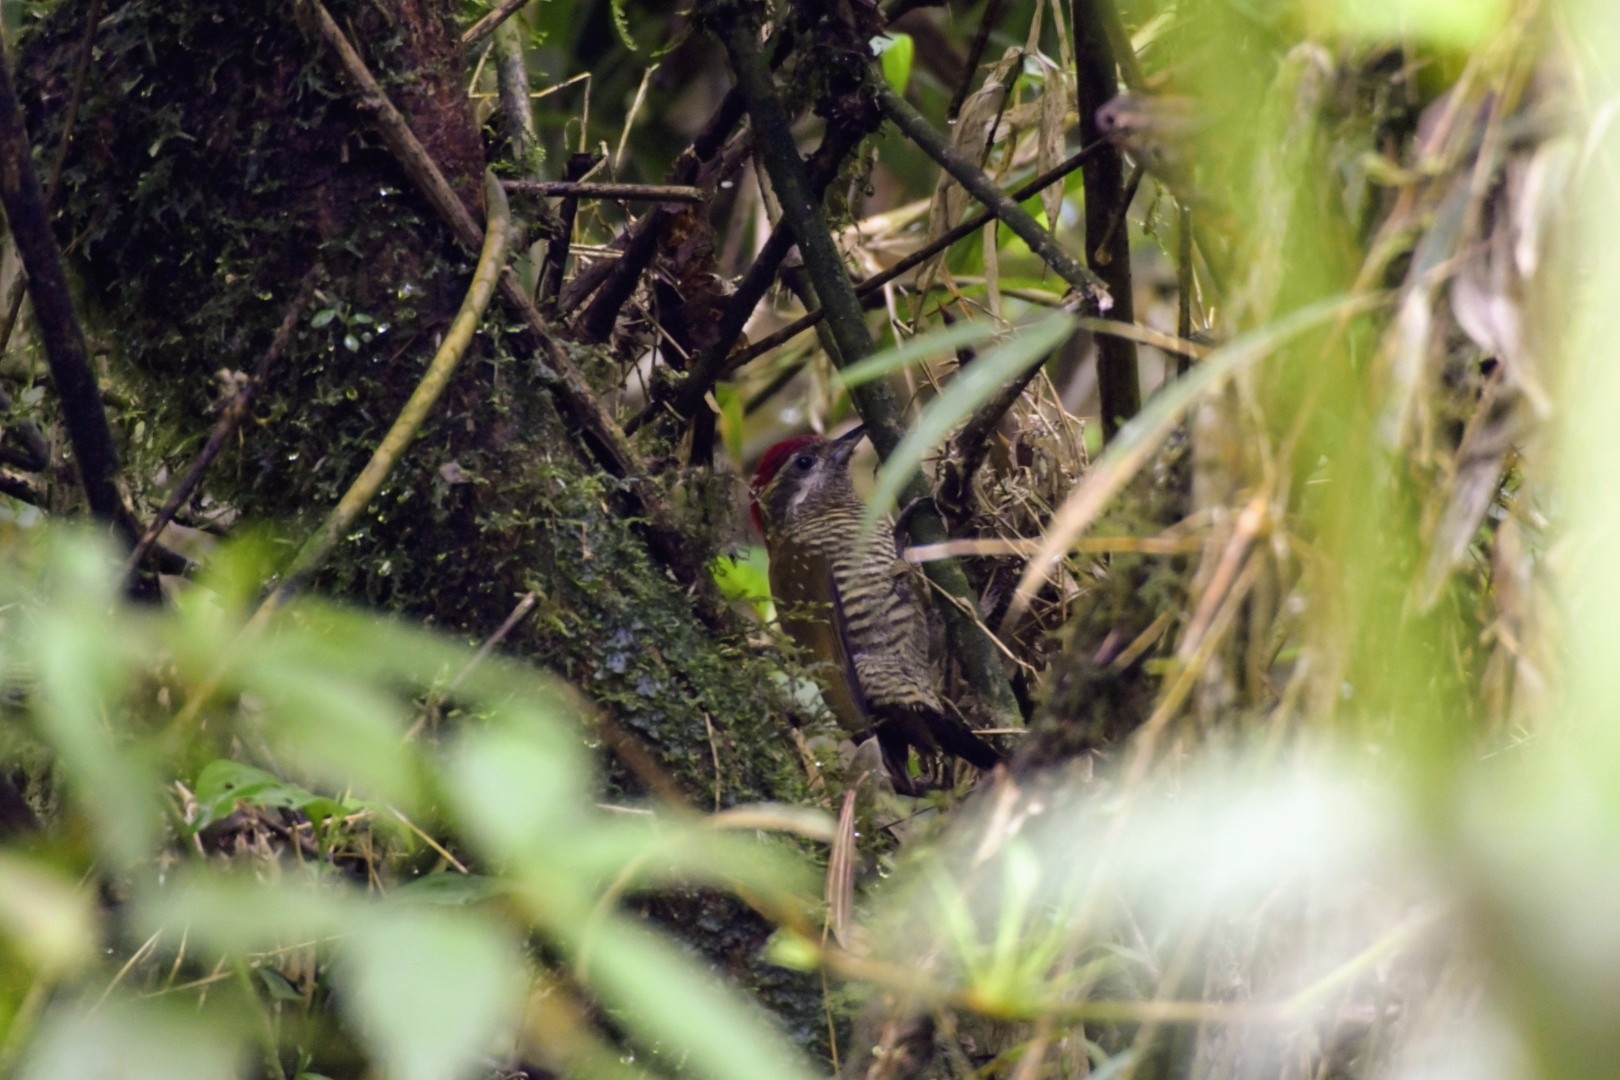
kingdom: Animalia
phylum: Chordata
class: Aves
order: Piciformes
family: Picidae
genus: Veniliornis
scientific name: Veniliornis nigriceps
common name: Bar-bellied woodpecker
